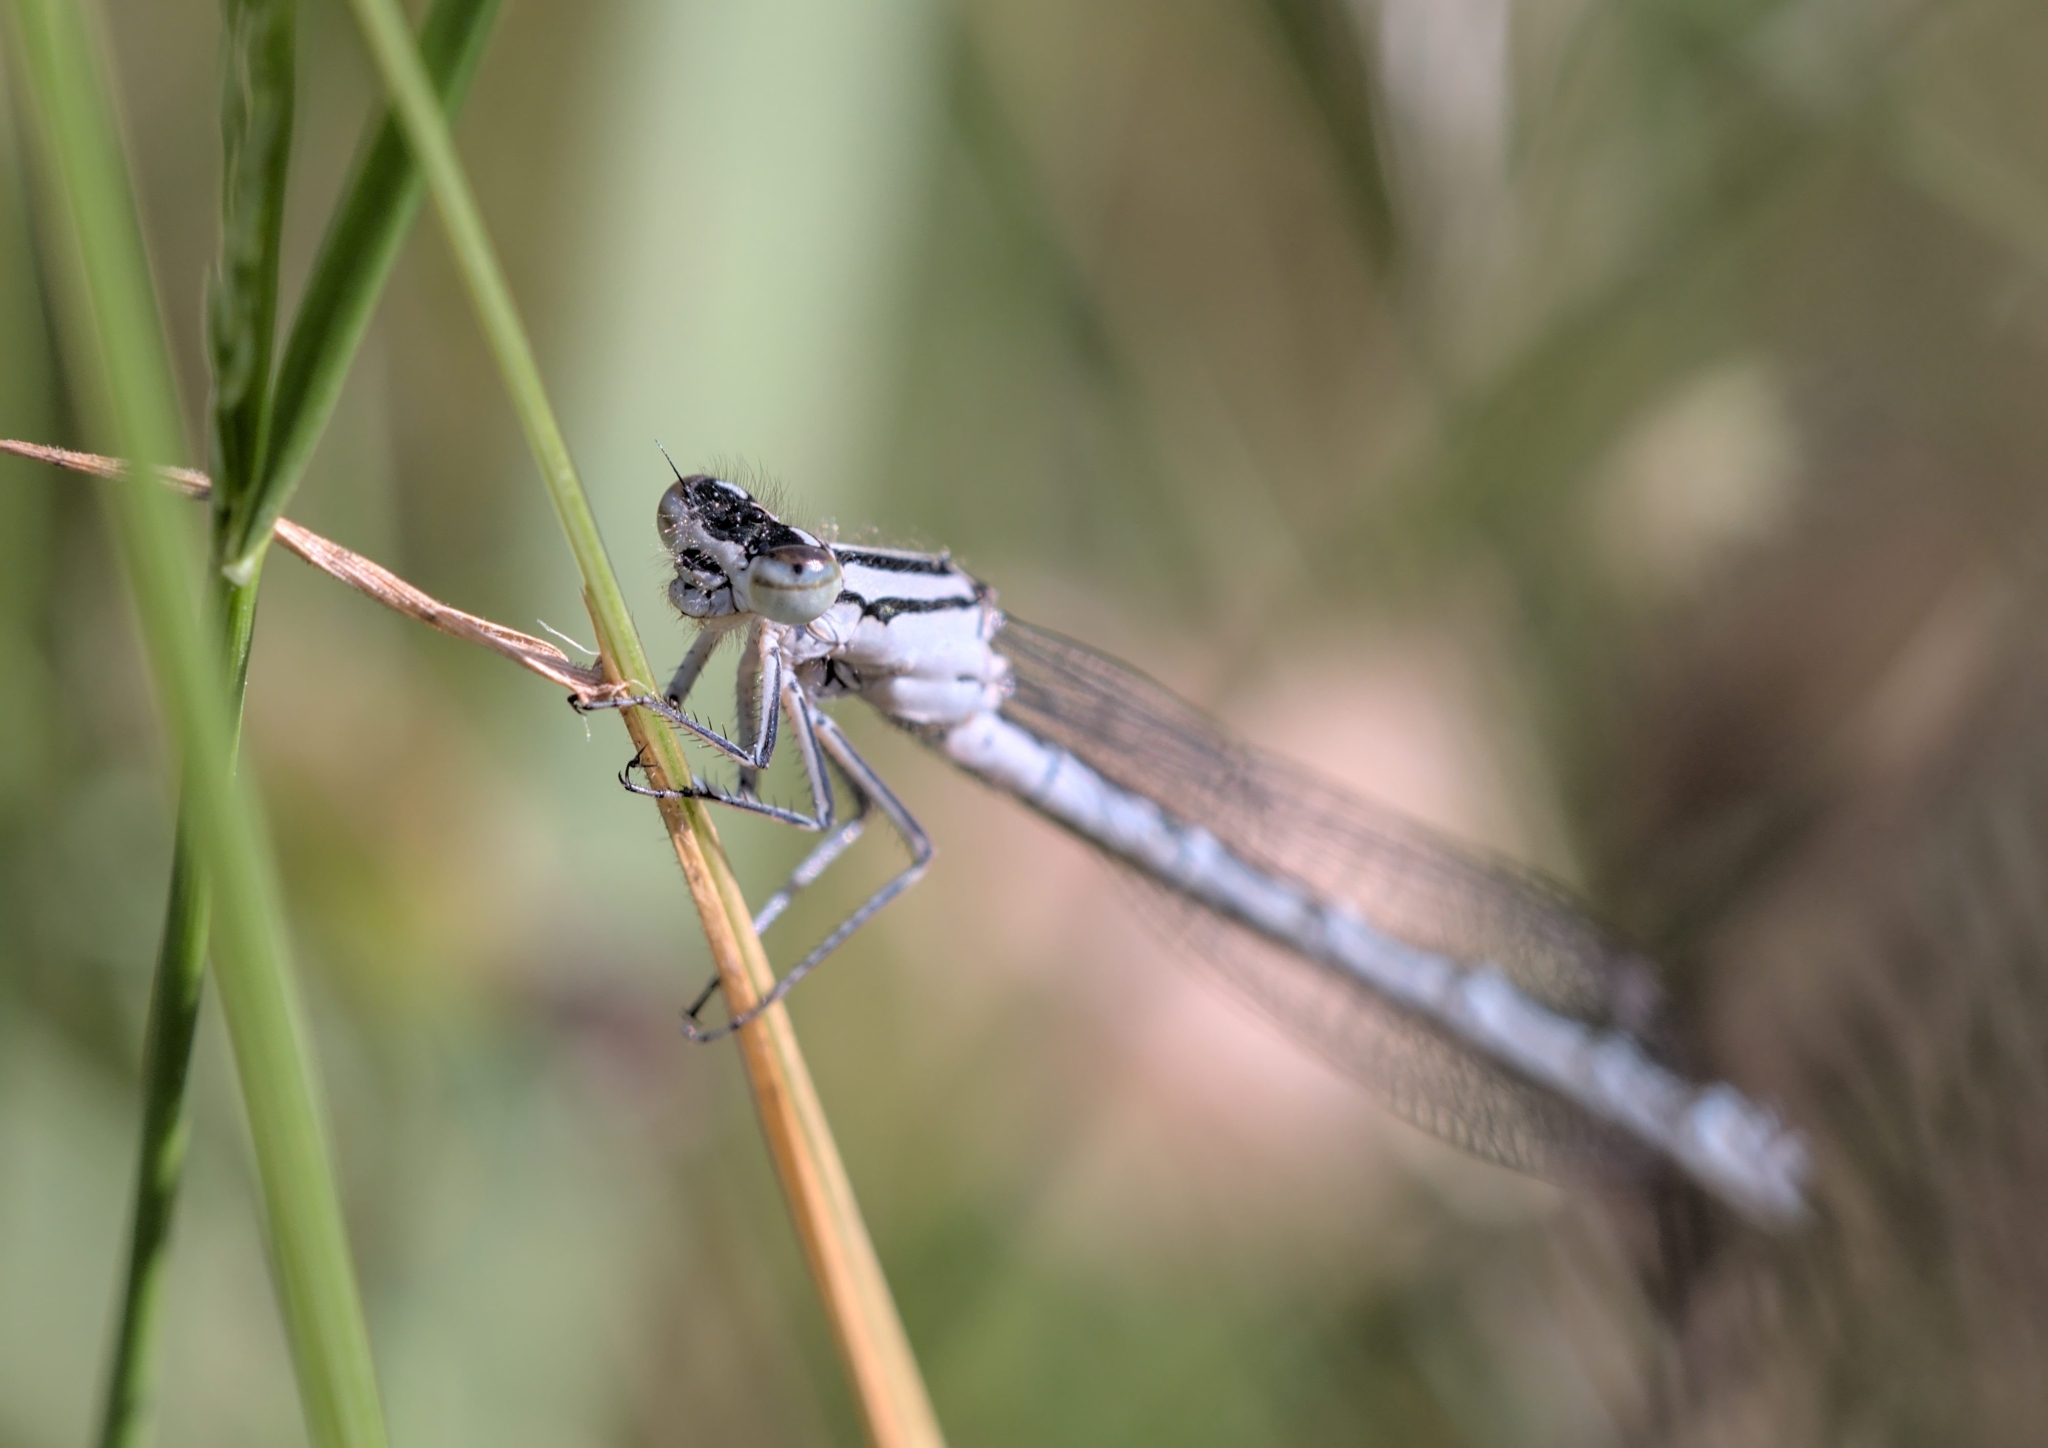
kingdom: Animalia
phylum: Arthropoda
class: Insecta
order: Odonata
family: Coenagrionidae
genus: Enallagma
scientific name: Enallagma cyathigerum
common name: Common blue damselfly
